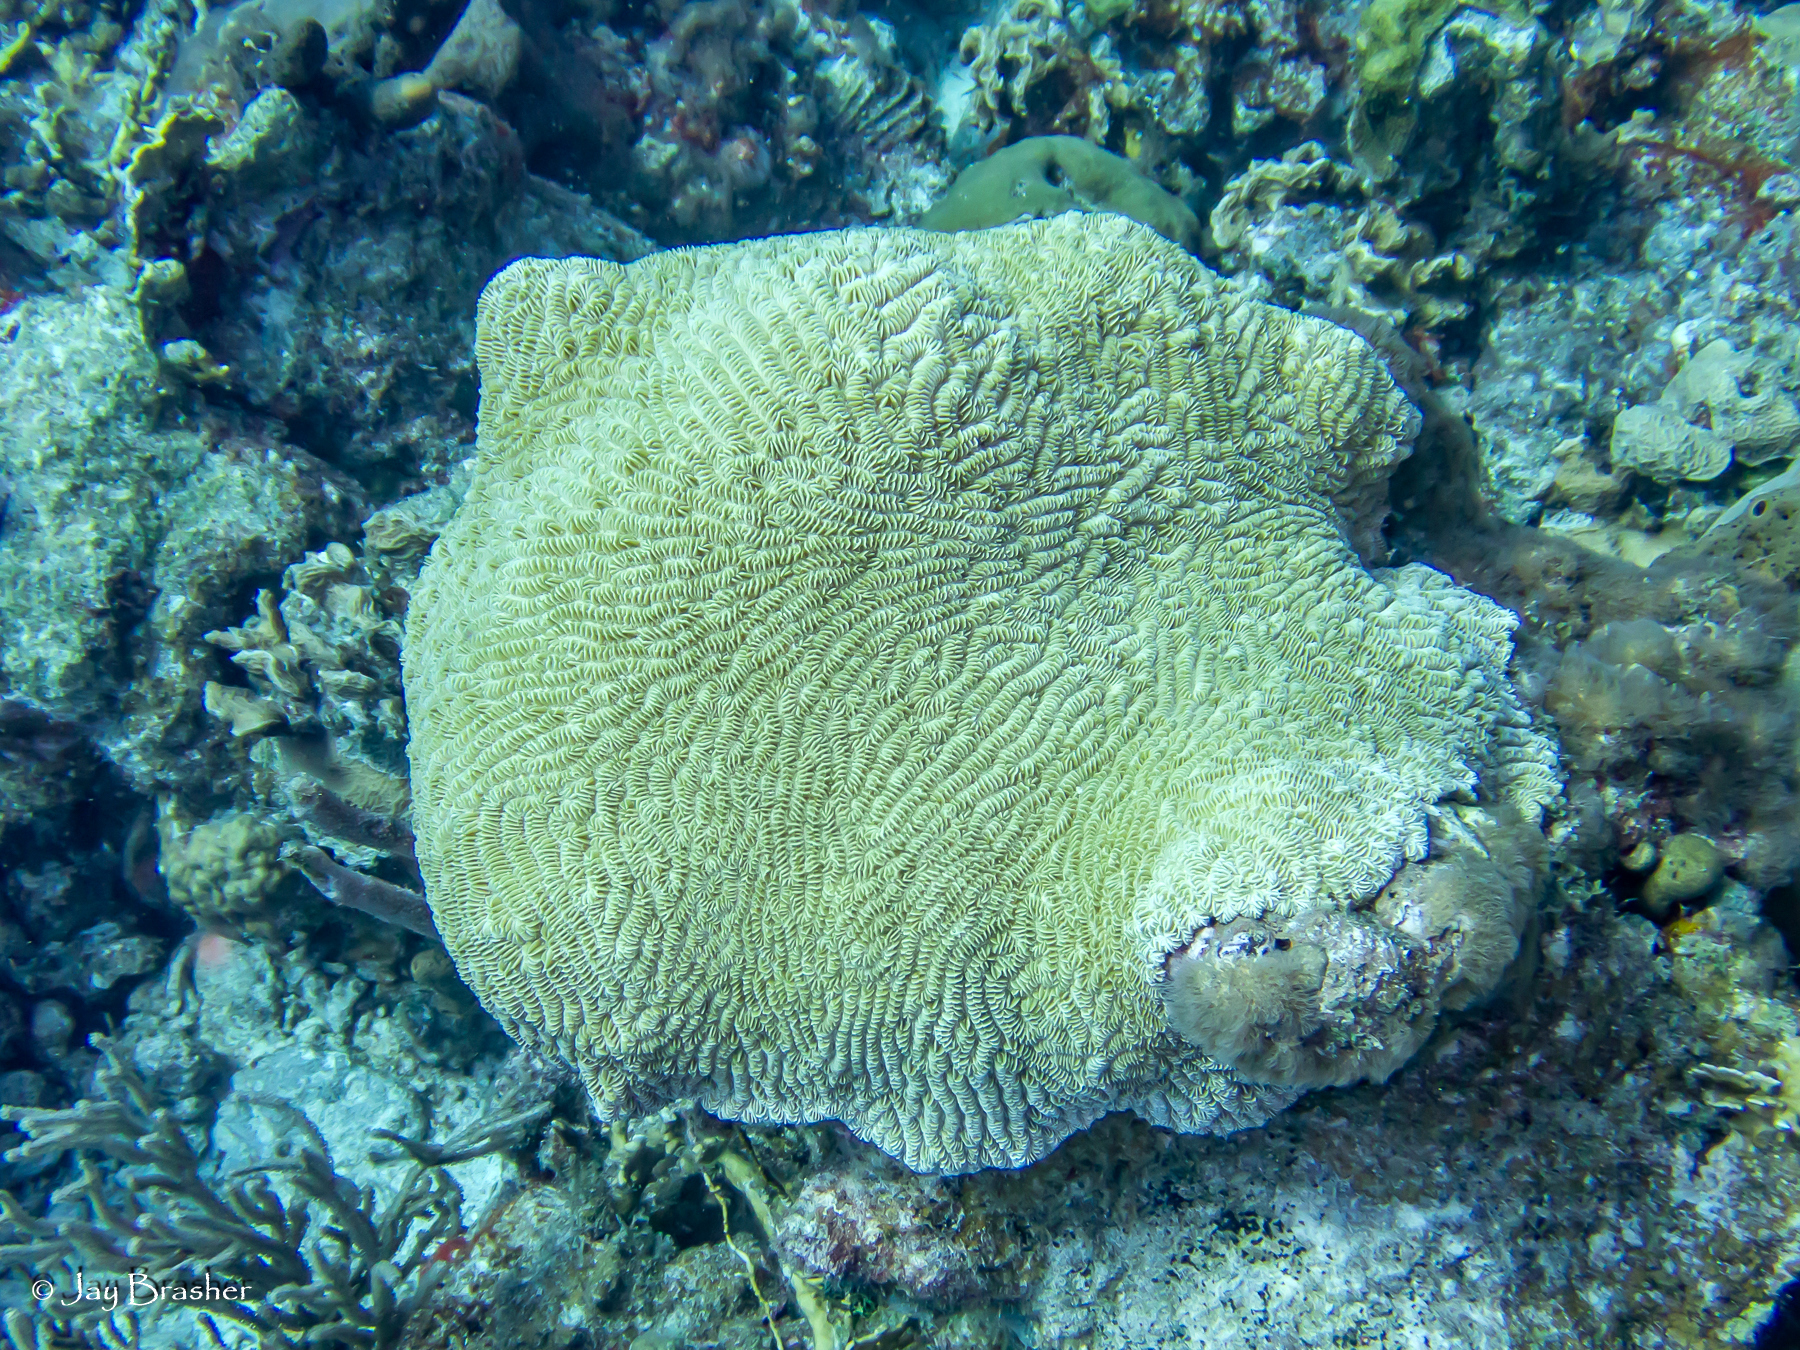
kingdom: Animalia
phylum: Cnidaria
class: Anthozoa
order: Scleractinia
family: Meandrinidae
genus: Meandrina
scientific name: Meandrina meandrites
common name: Maze coral
